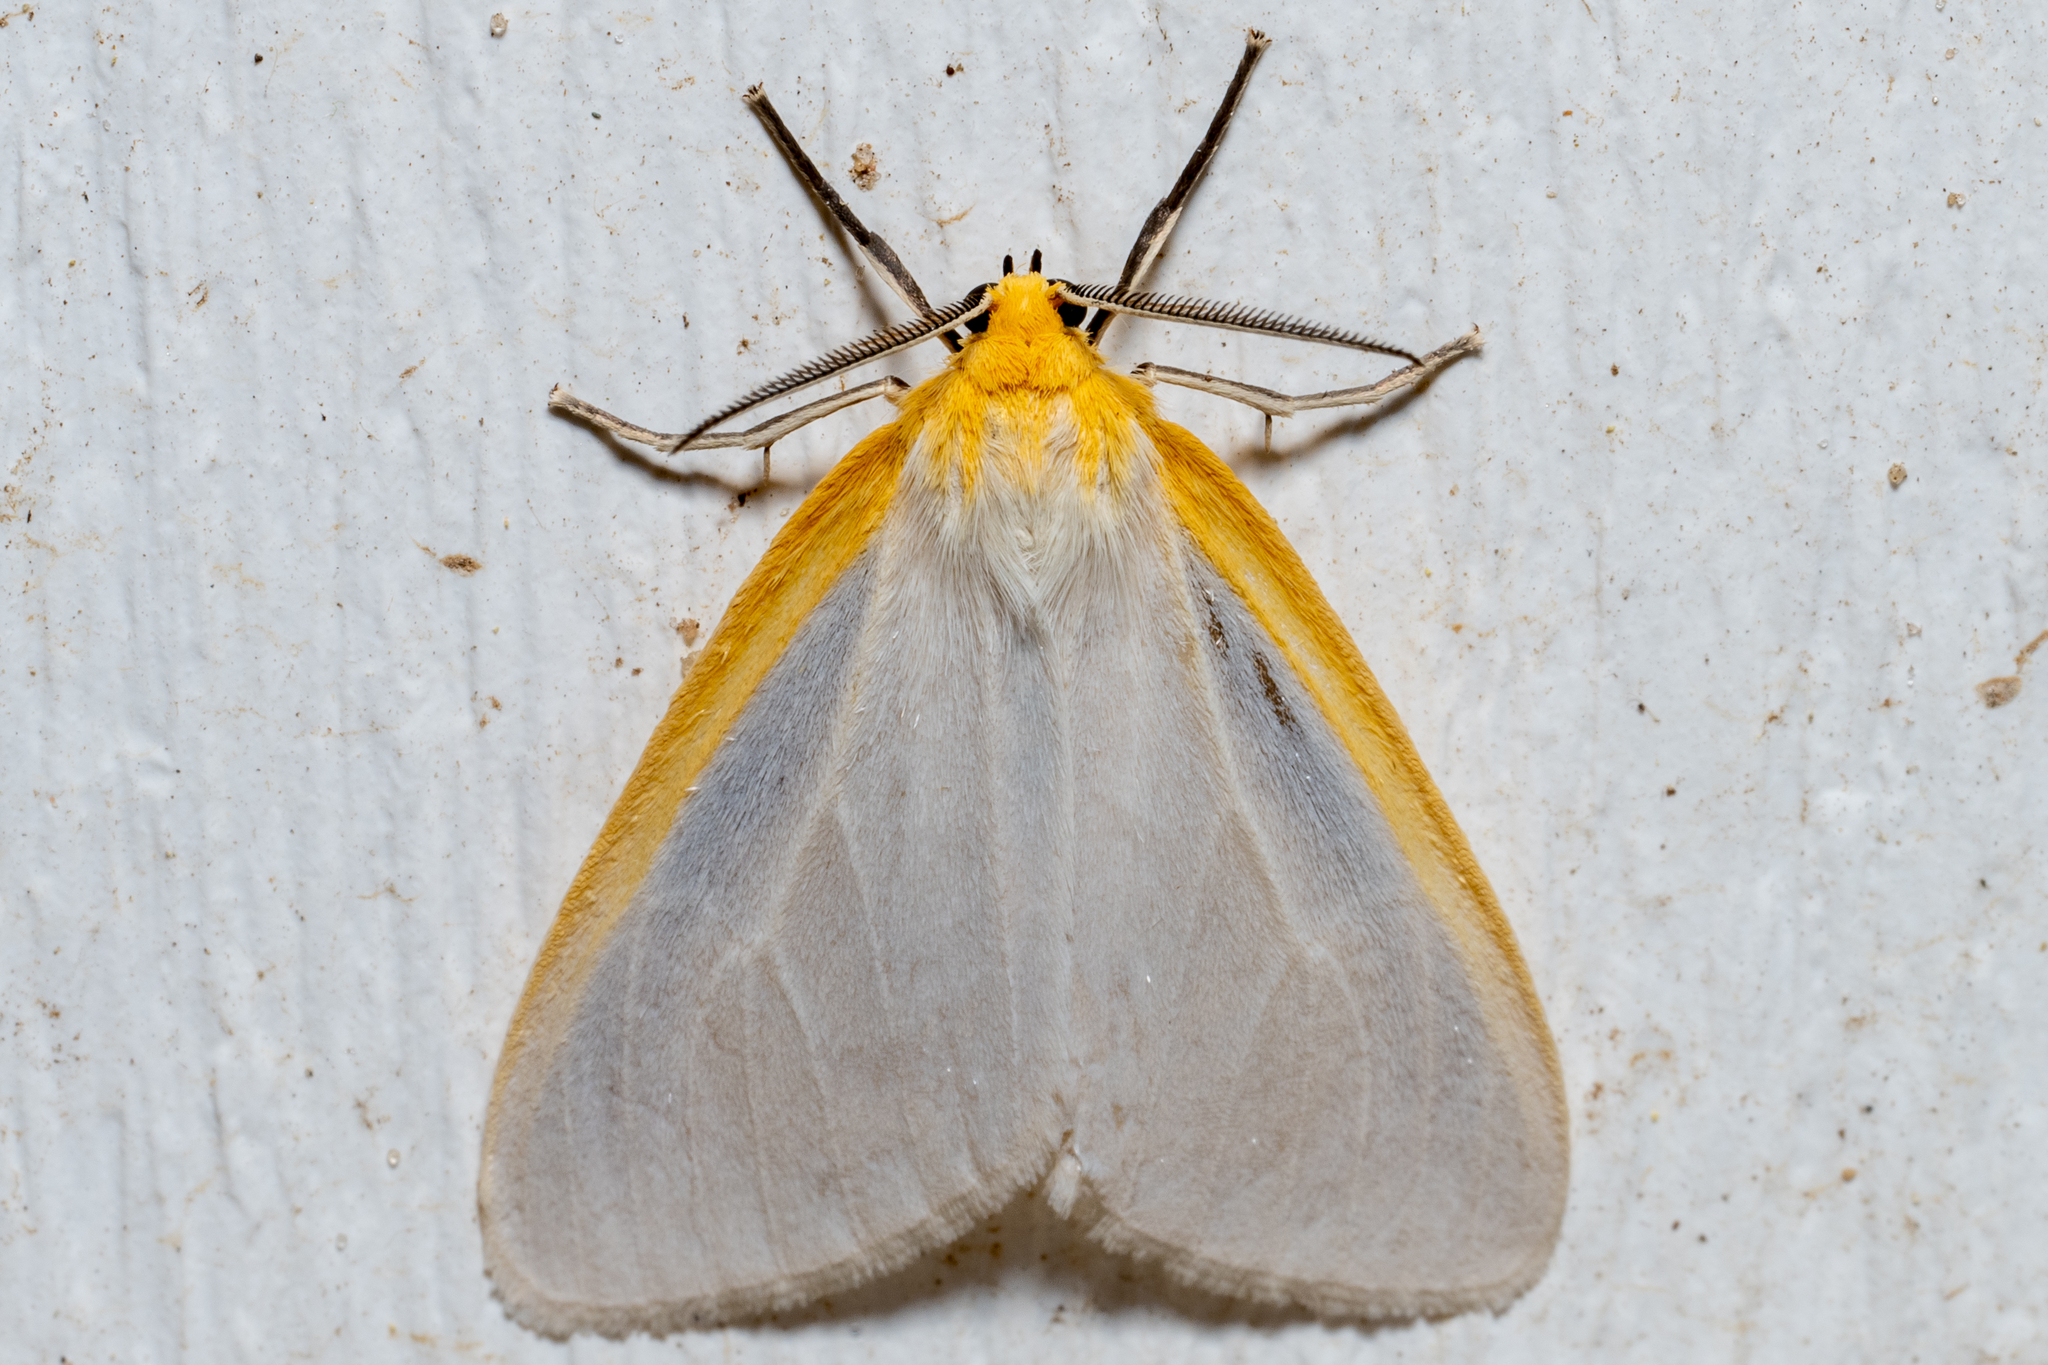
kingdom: Animalia
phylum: Arthropoda
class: Insecta
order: Lepidoptera
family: Erebidae
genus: Cycnia
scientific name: Cycnia tenera
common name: Delicate cycnia moth
